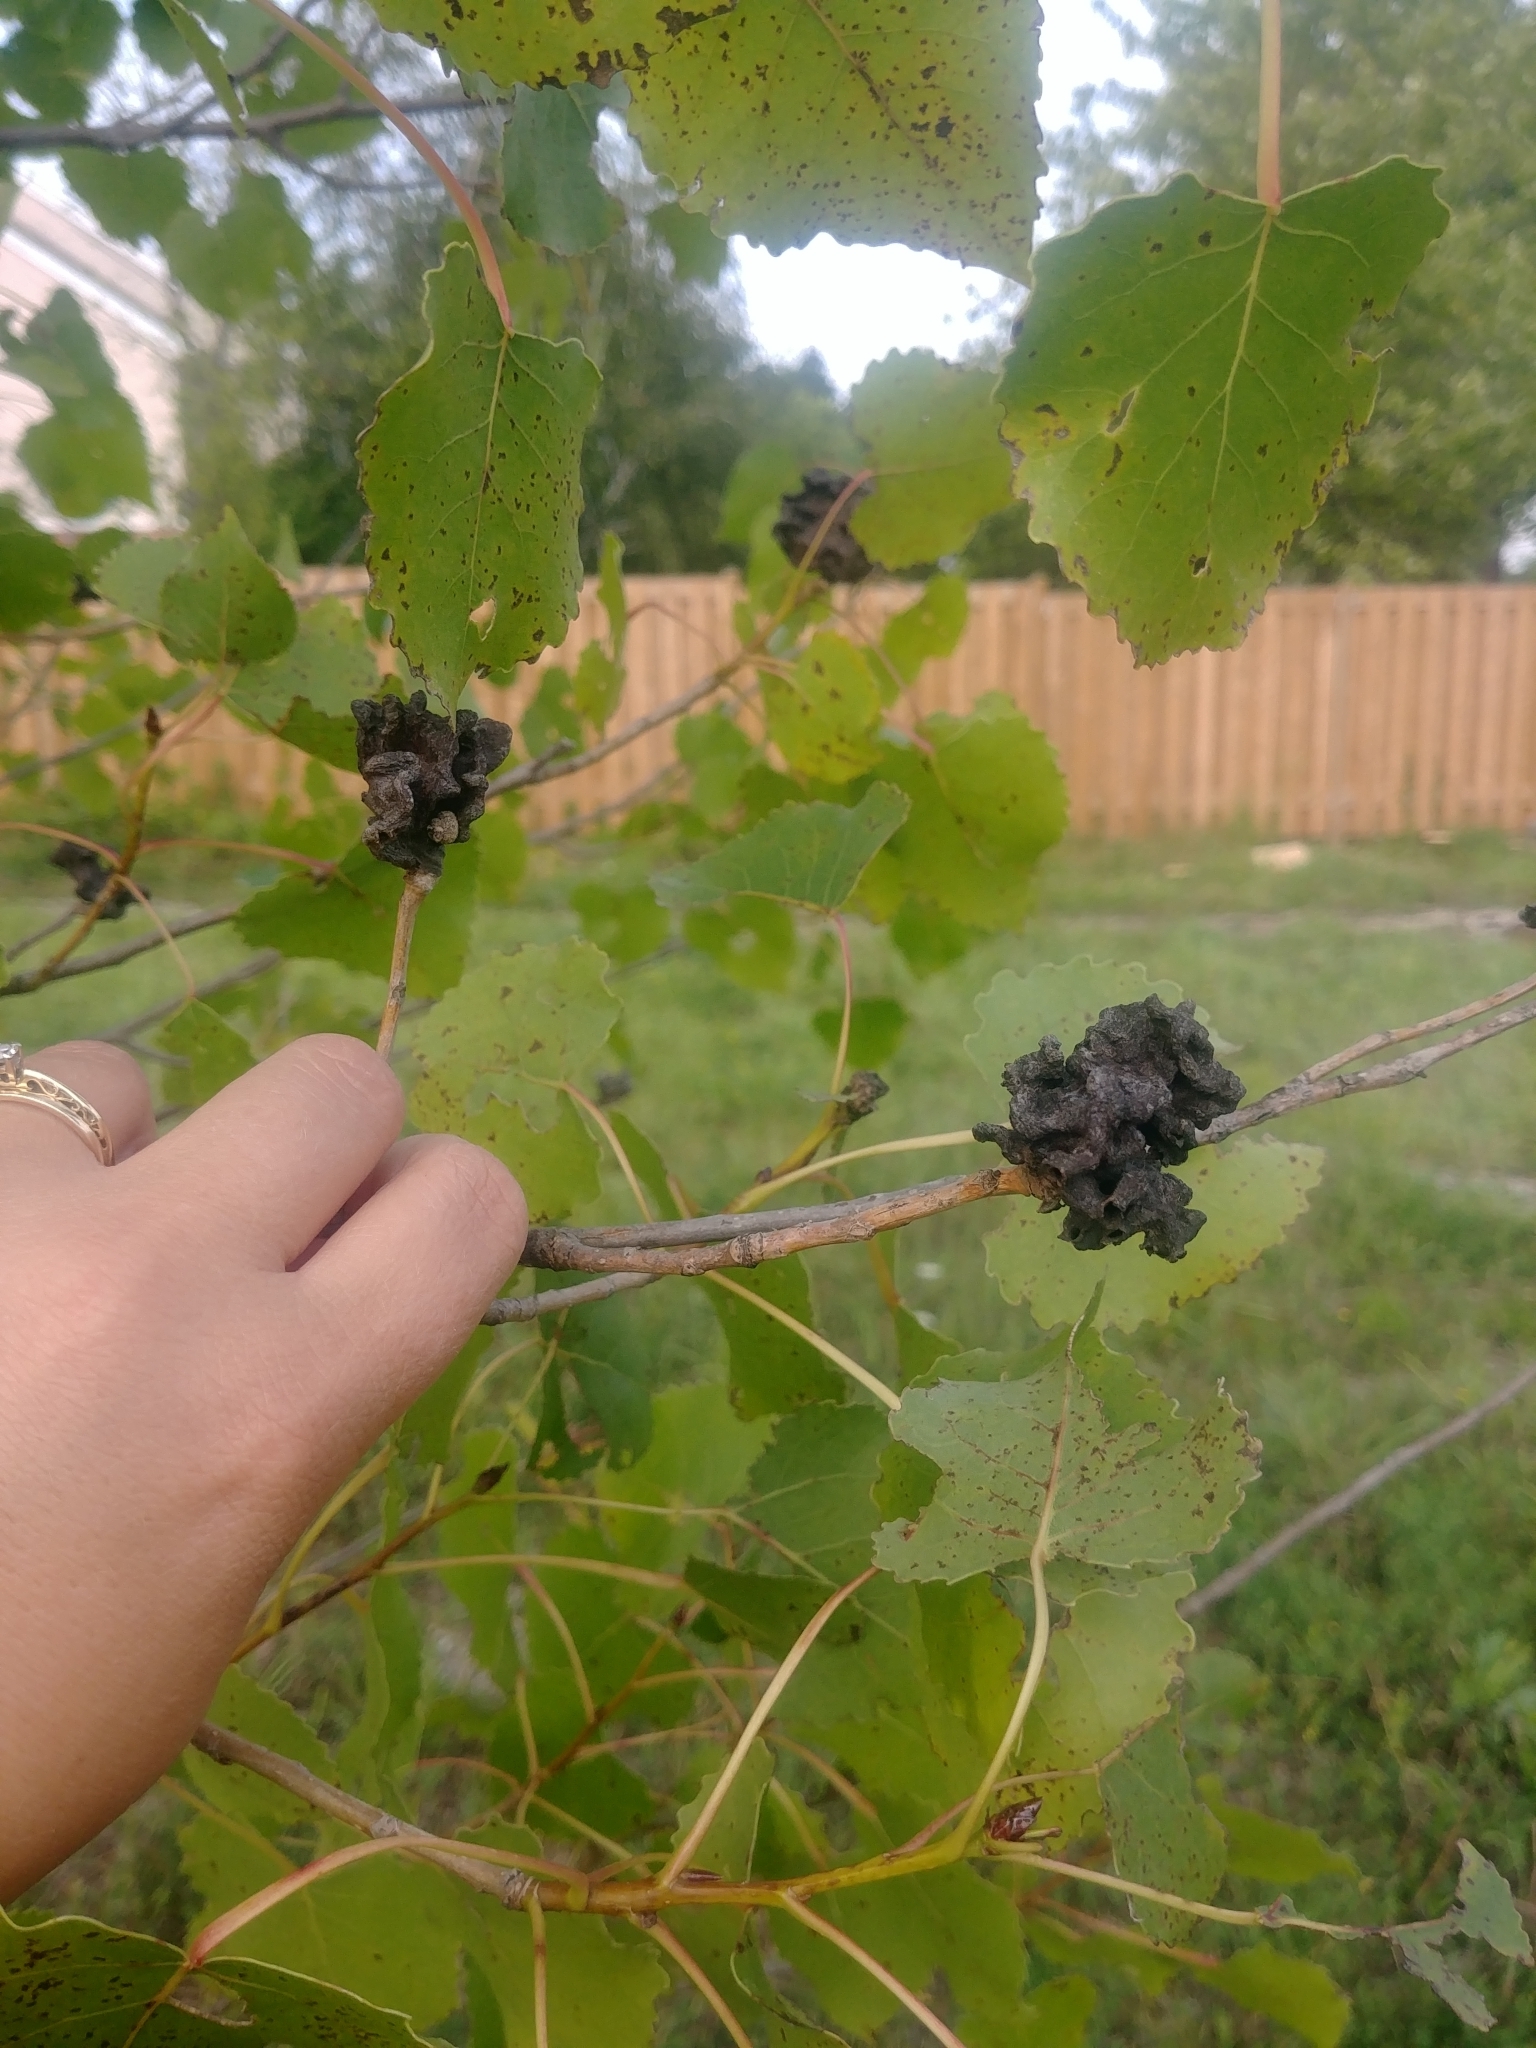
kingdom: Animalia
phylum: Arthropoda
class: Insecta
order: Hemiptera
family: Aphididae
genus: Mordwilkoja
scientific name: Mordwilkoja vagabunda
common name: Poplar vagabond aphid
